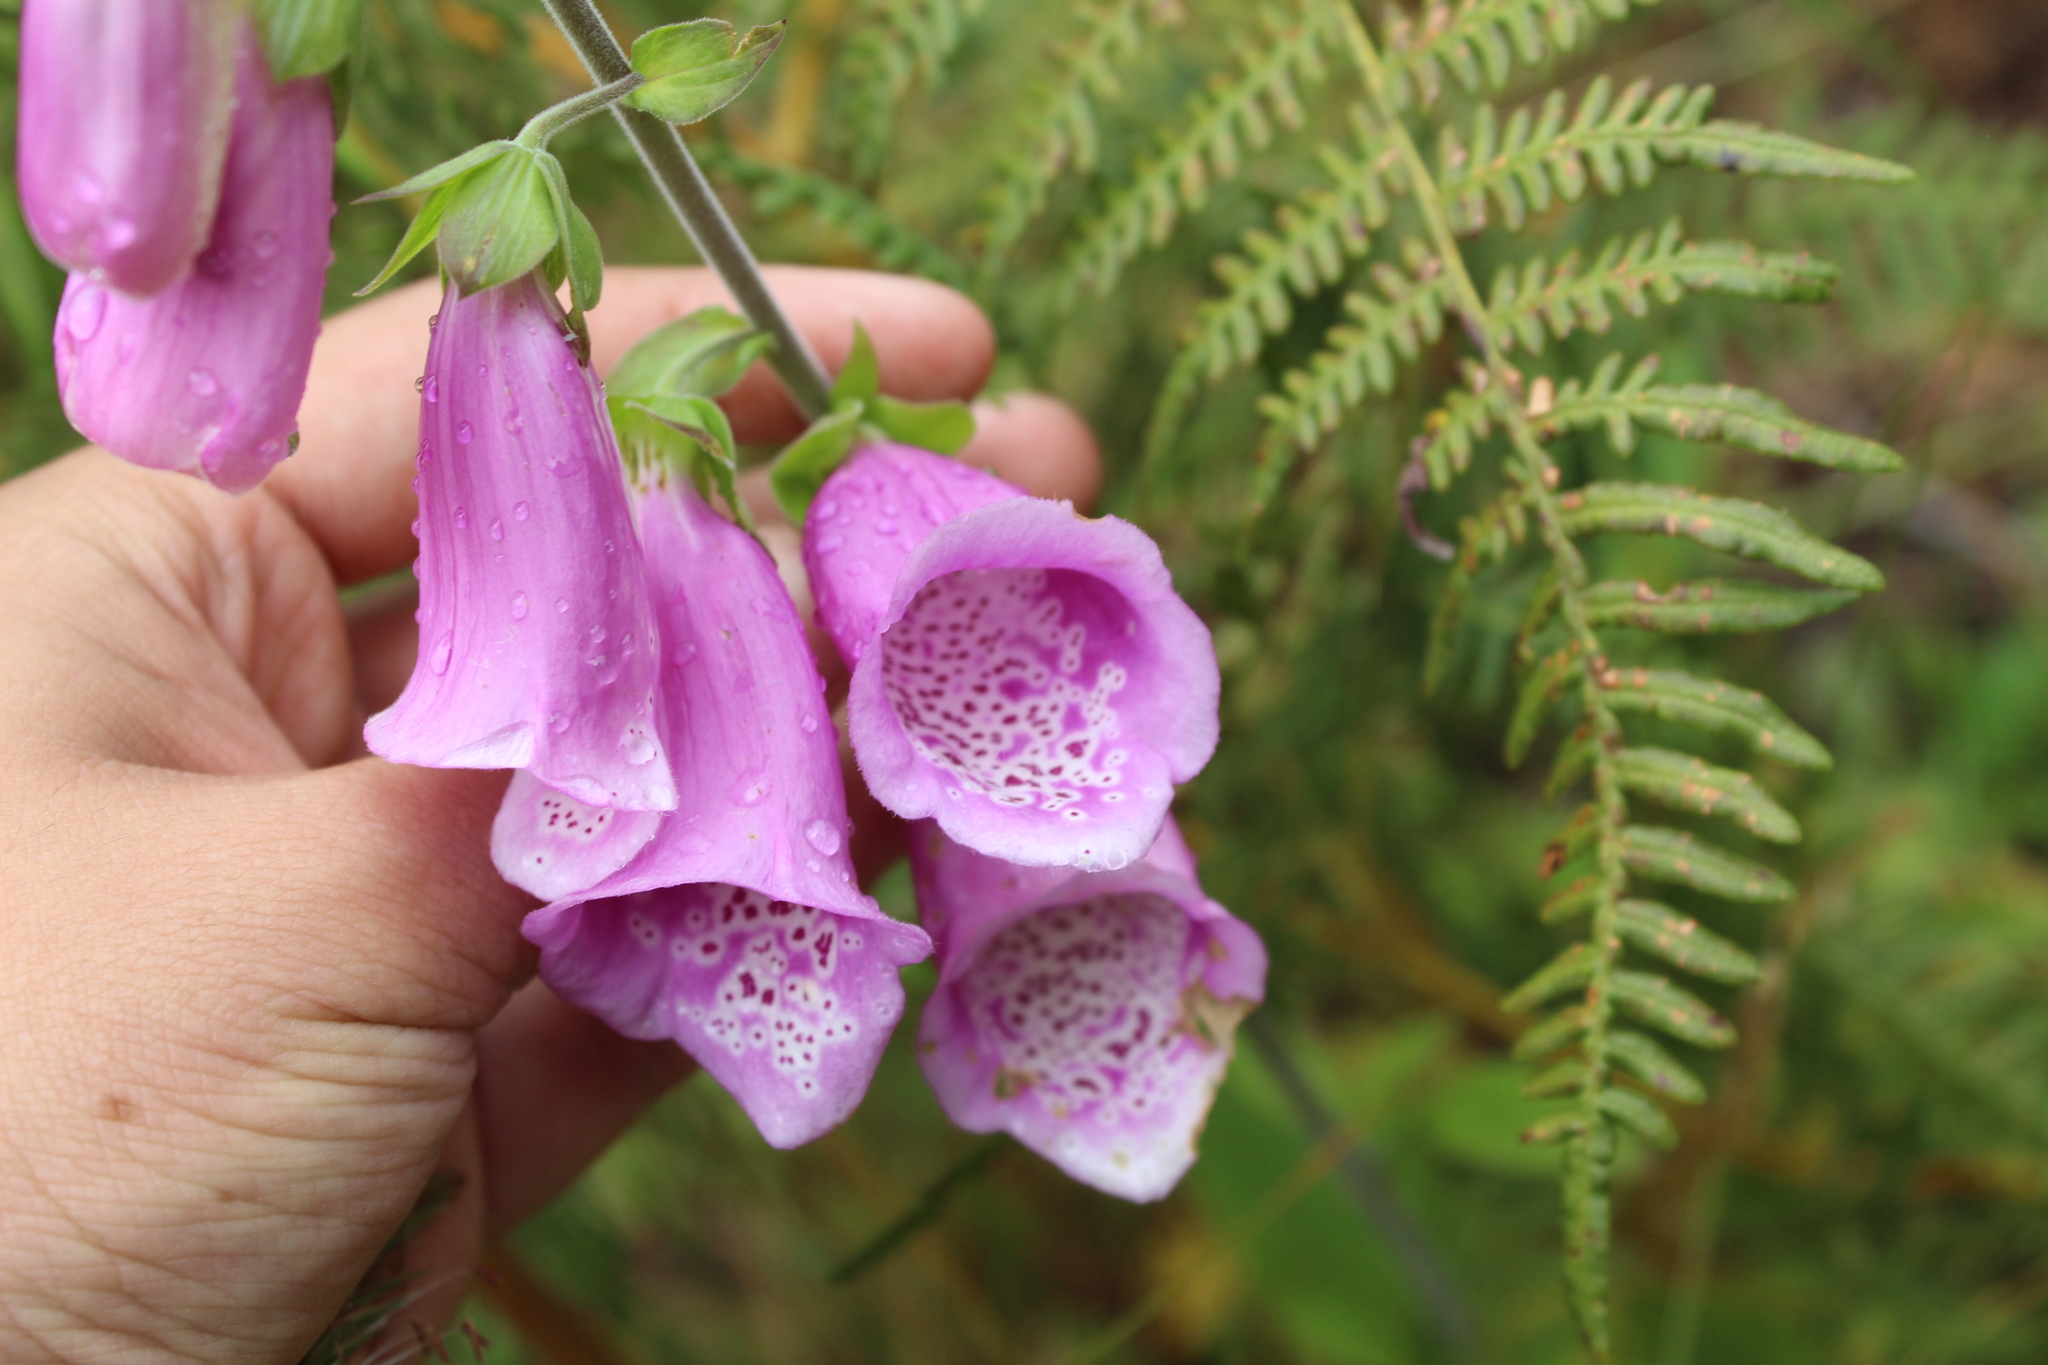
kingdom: Plantae
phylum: Tracheophyta
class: Magnoliopsida
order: Lamiales
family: Plantaginaceae
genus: Digitalis
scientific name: Digitalis purpurea
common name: Foxglove
